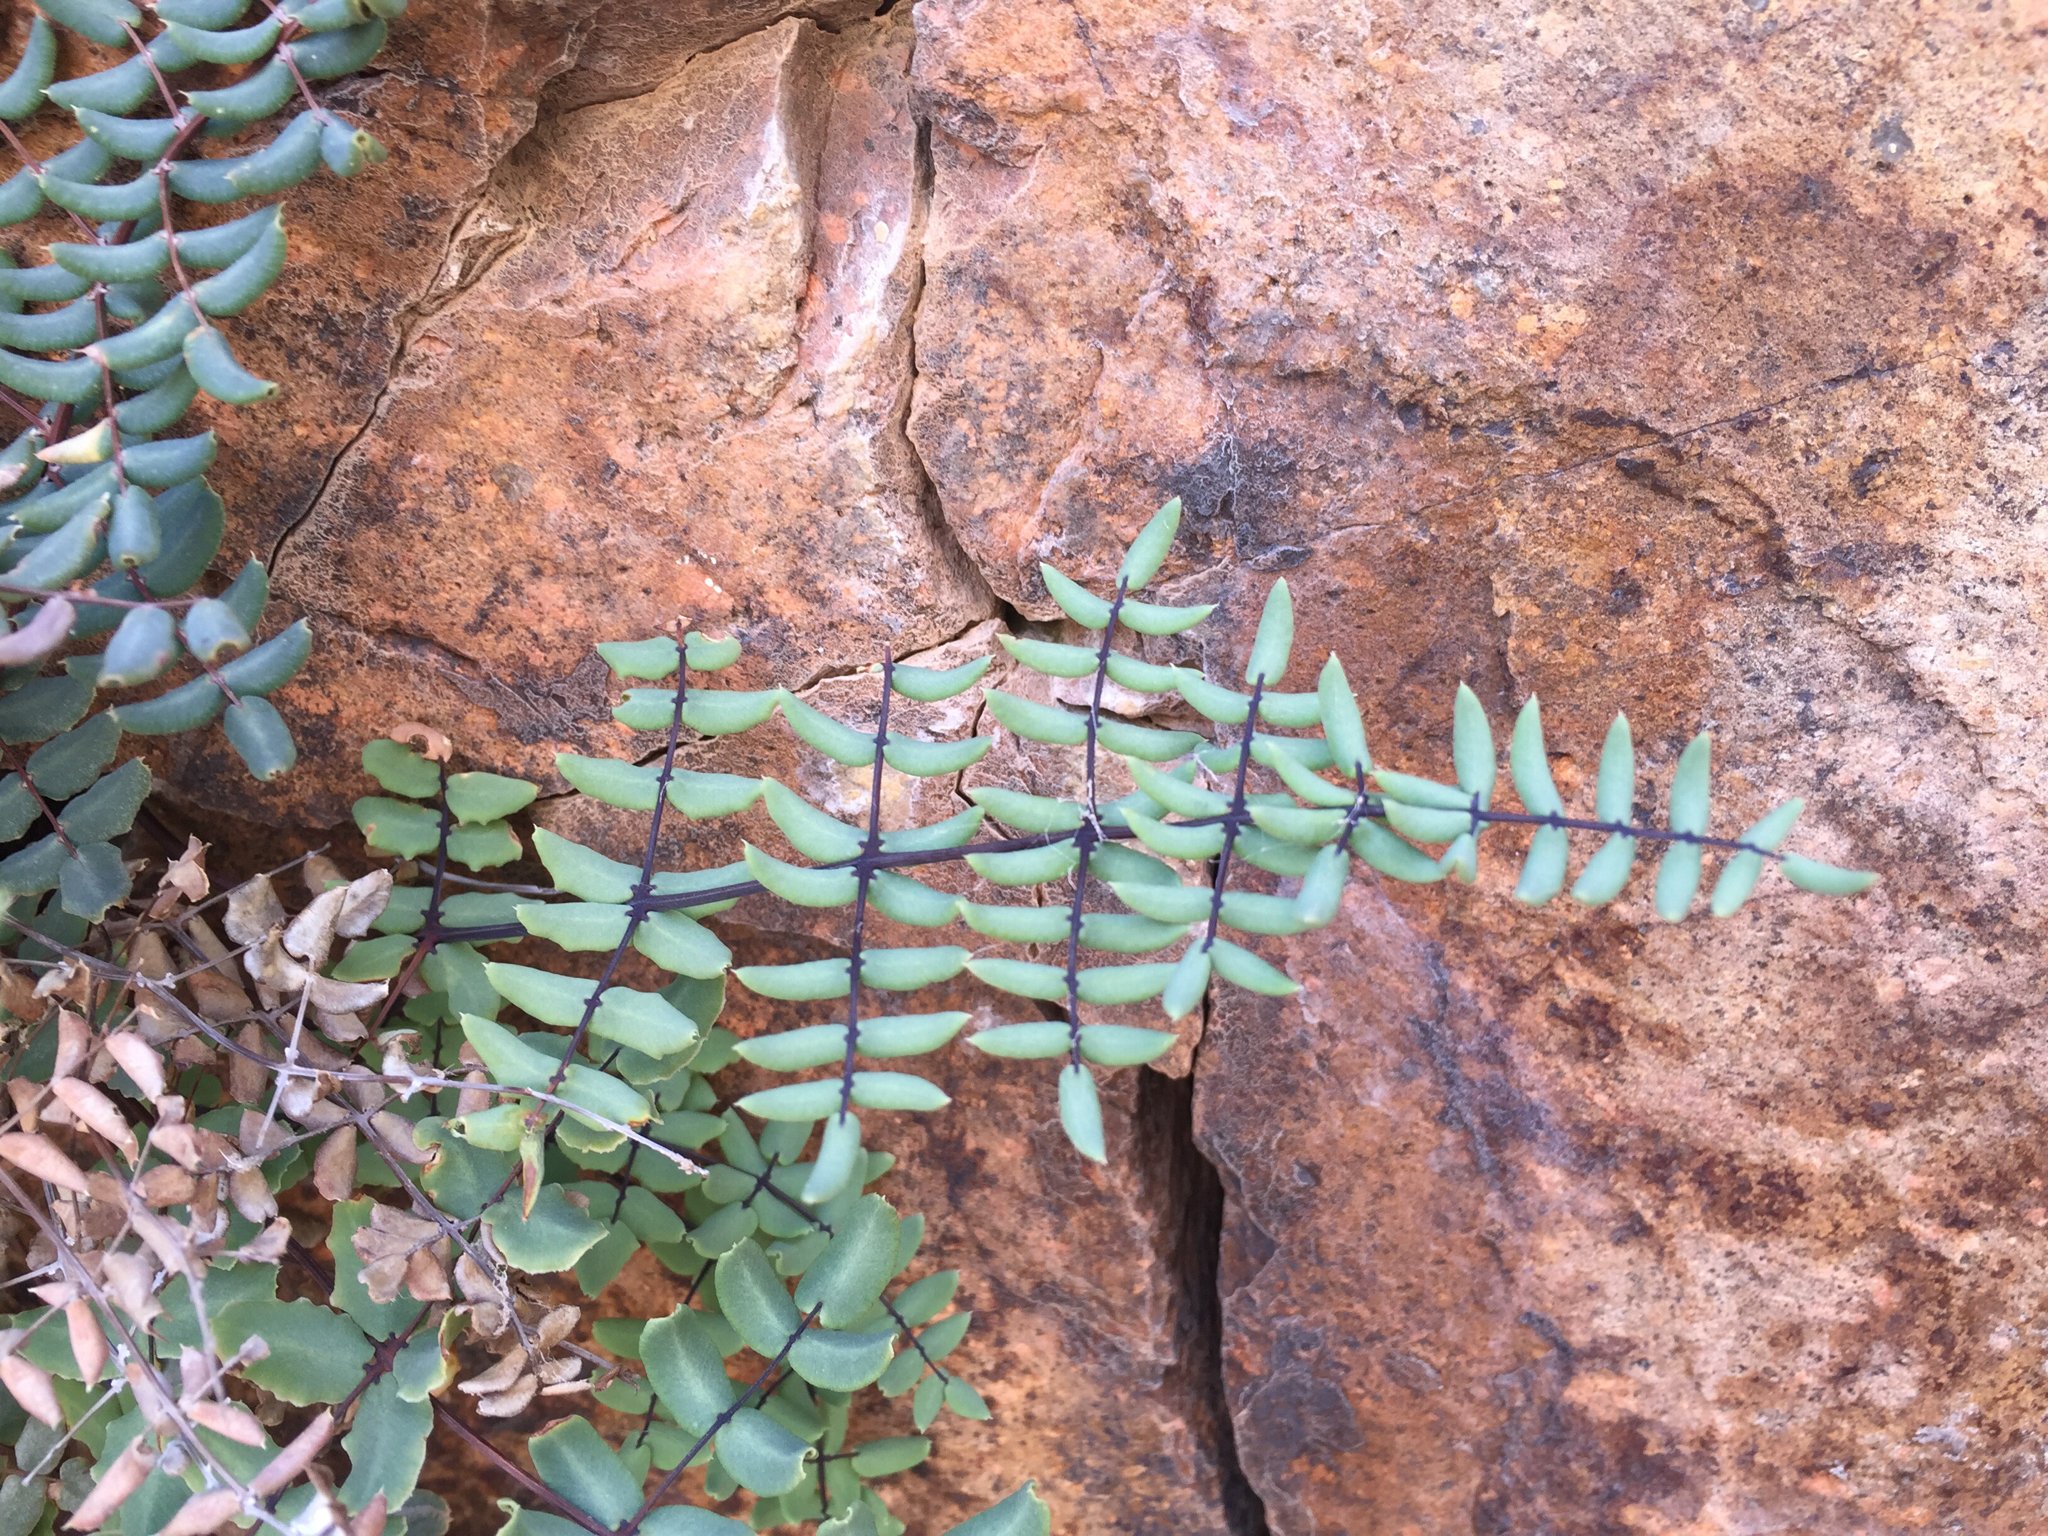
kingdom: Plantae
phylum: Tracheophyta
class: Polypodiopsida
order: Polypodiales
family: Pteridaceae
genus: Pellaea
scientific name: Pellaea truncata
